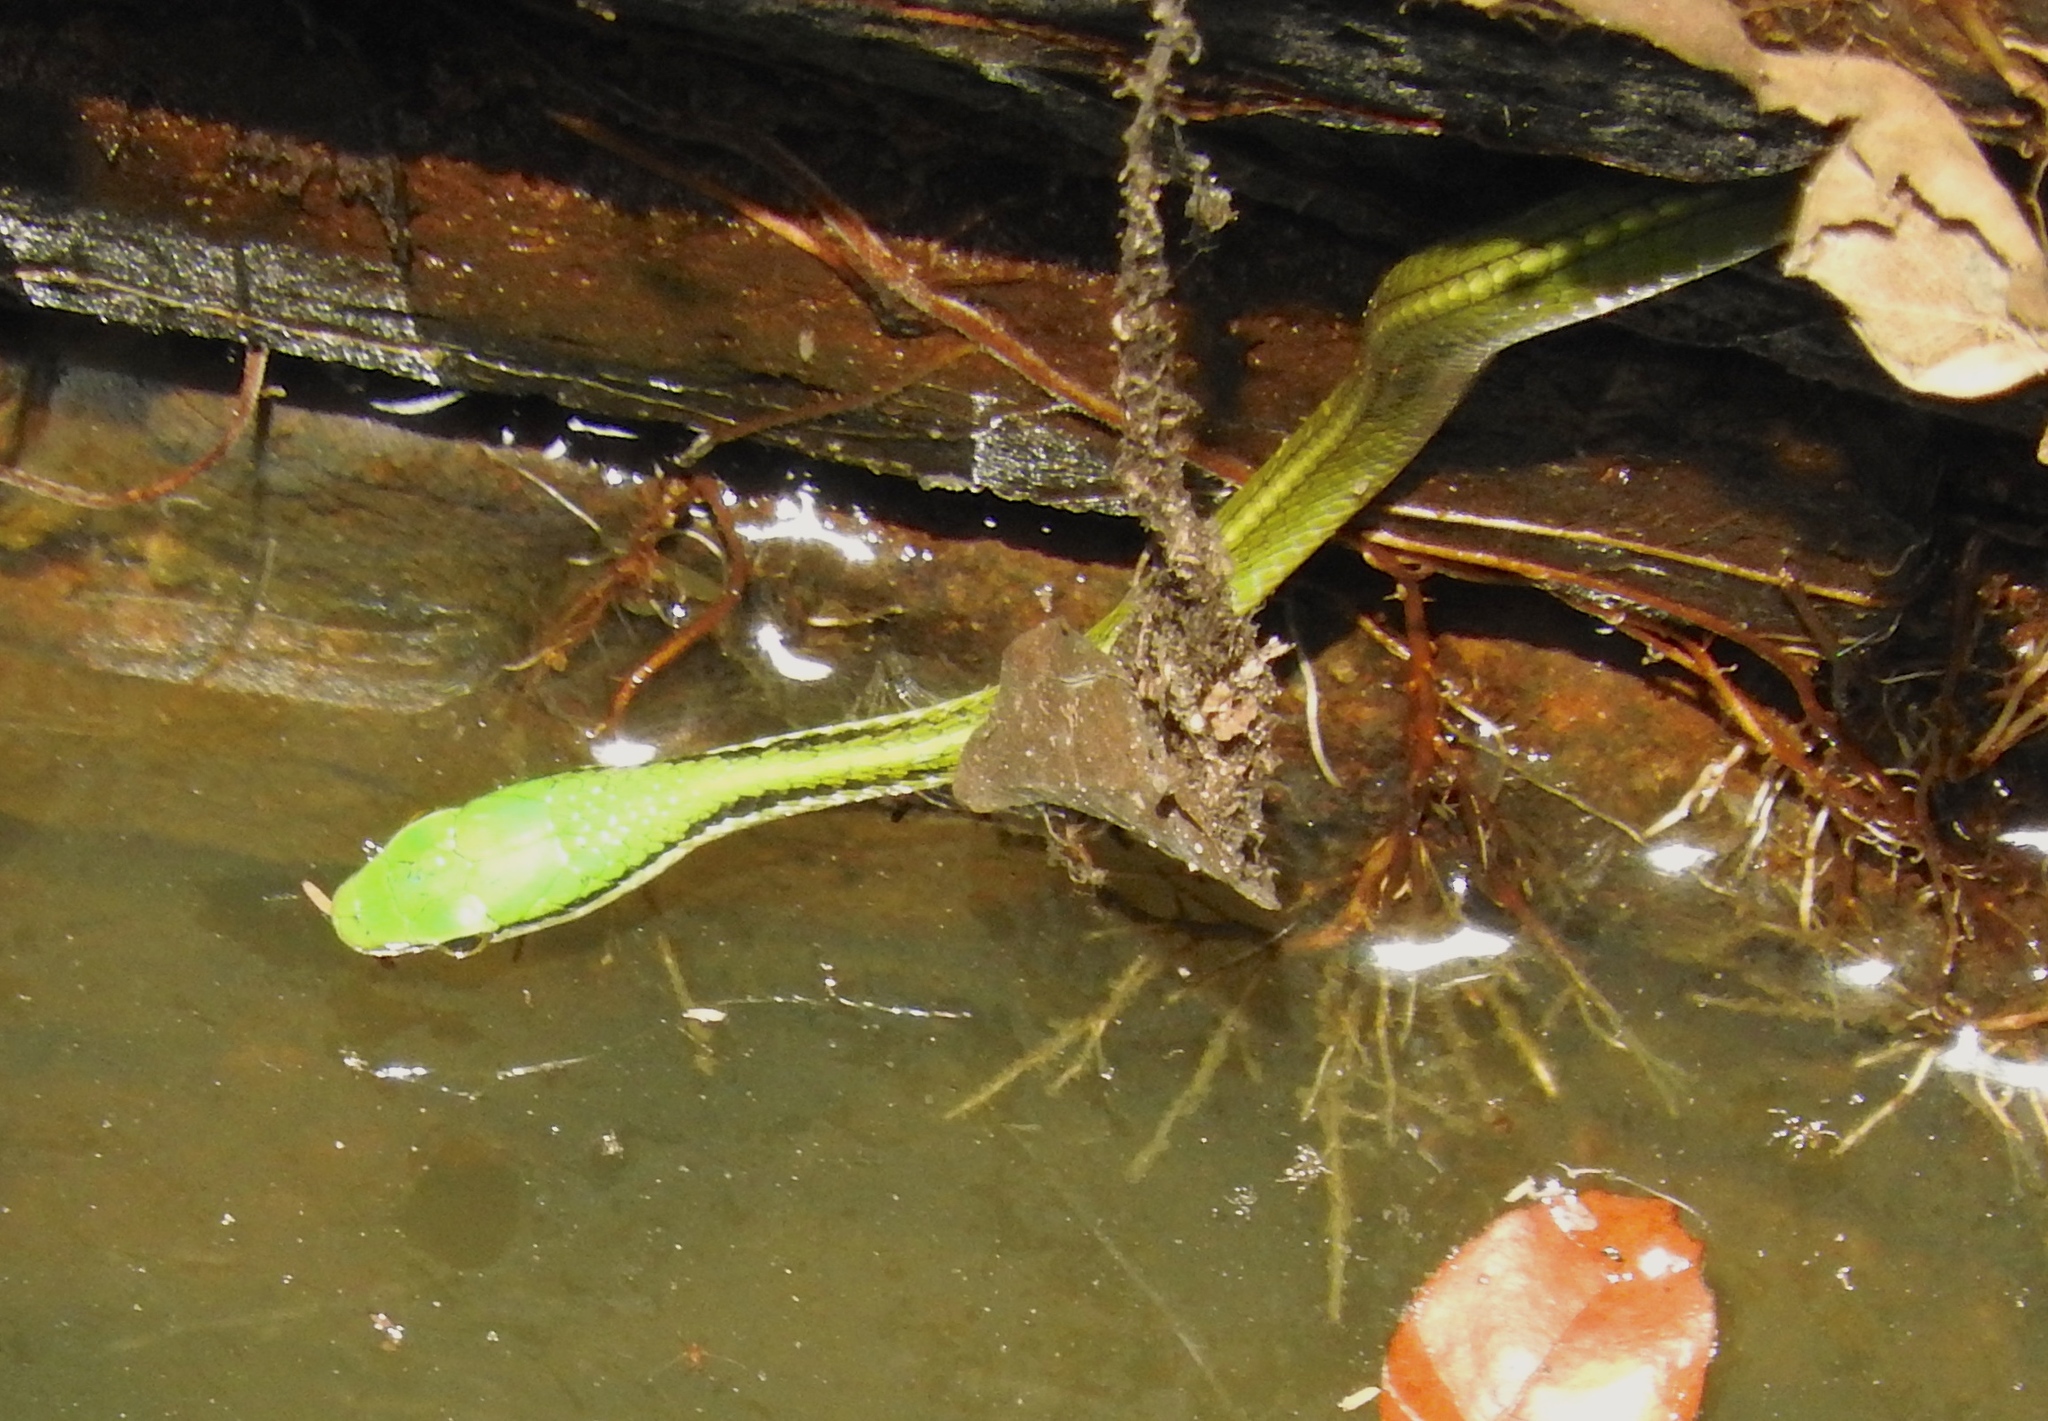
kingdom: Animalia
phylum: Chordata
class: Squamata
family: Colubridae
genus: Leptophis
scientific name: Leptophis diplotropis
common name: Pacific coast parrot snake
